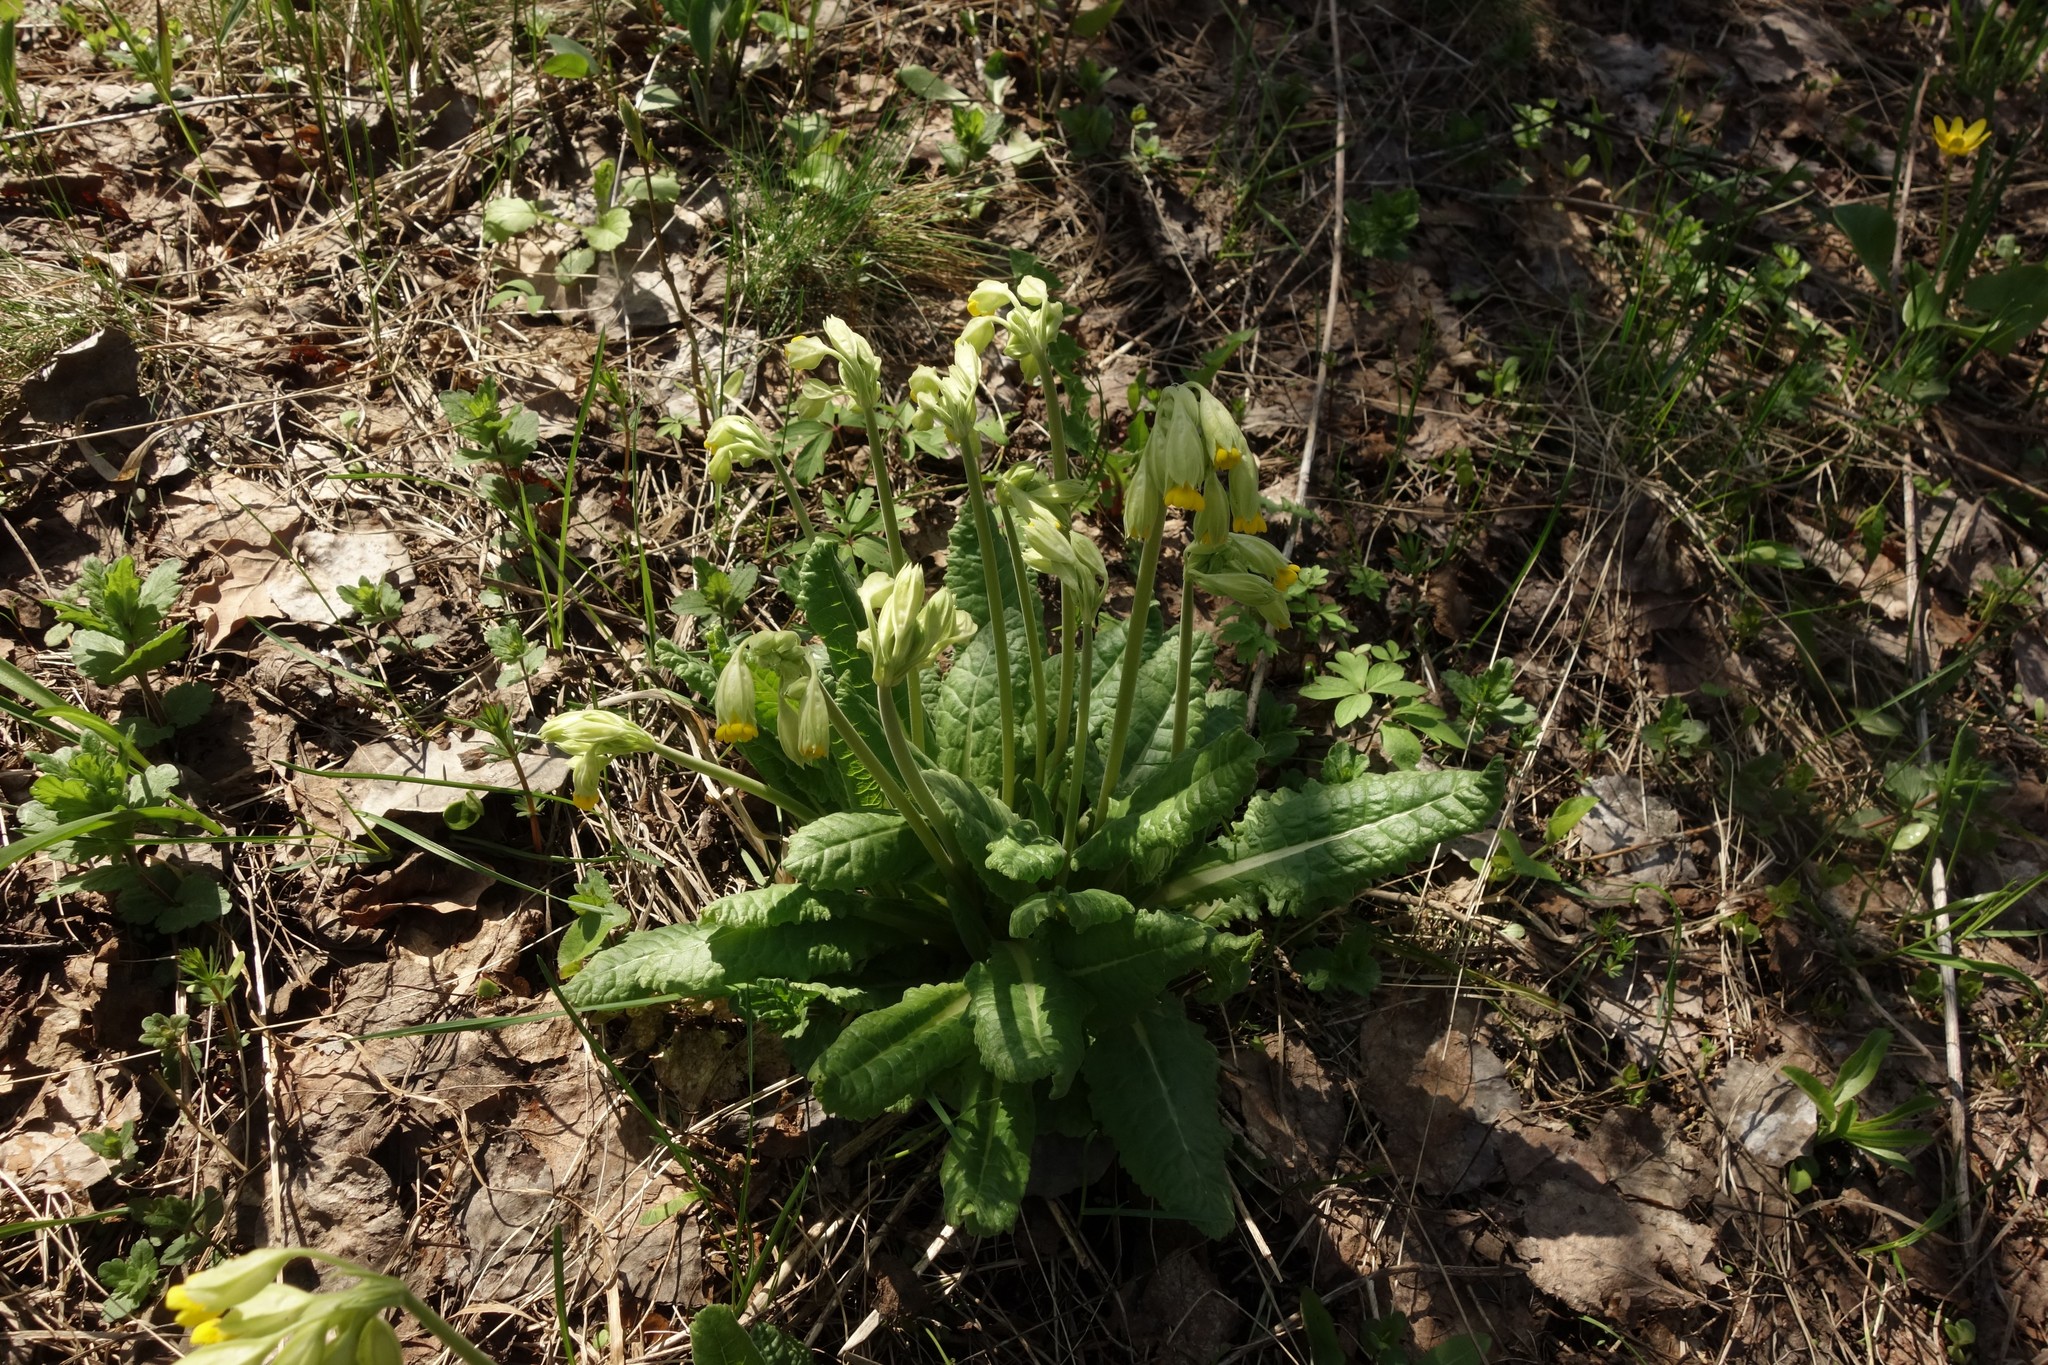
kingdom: Plantae
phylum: Tracheophyta
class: Magnoliopsida
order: Ericales
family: Primulaceae
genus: Primula
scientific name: Primula veris
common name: Cowslip
